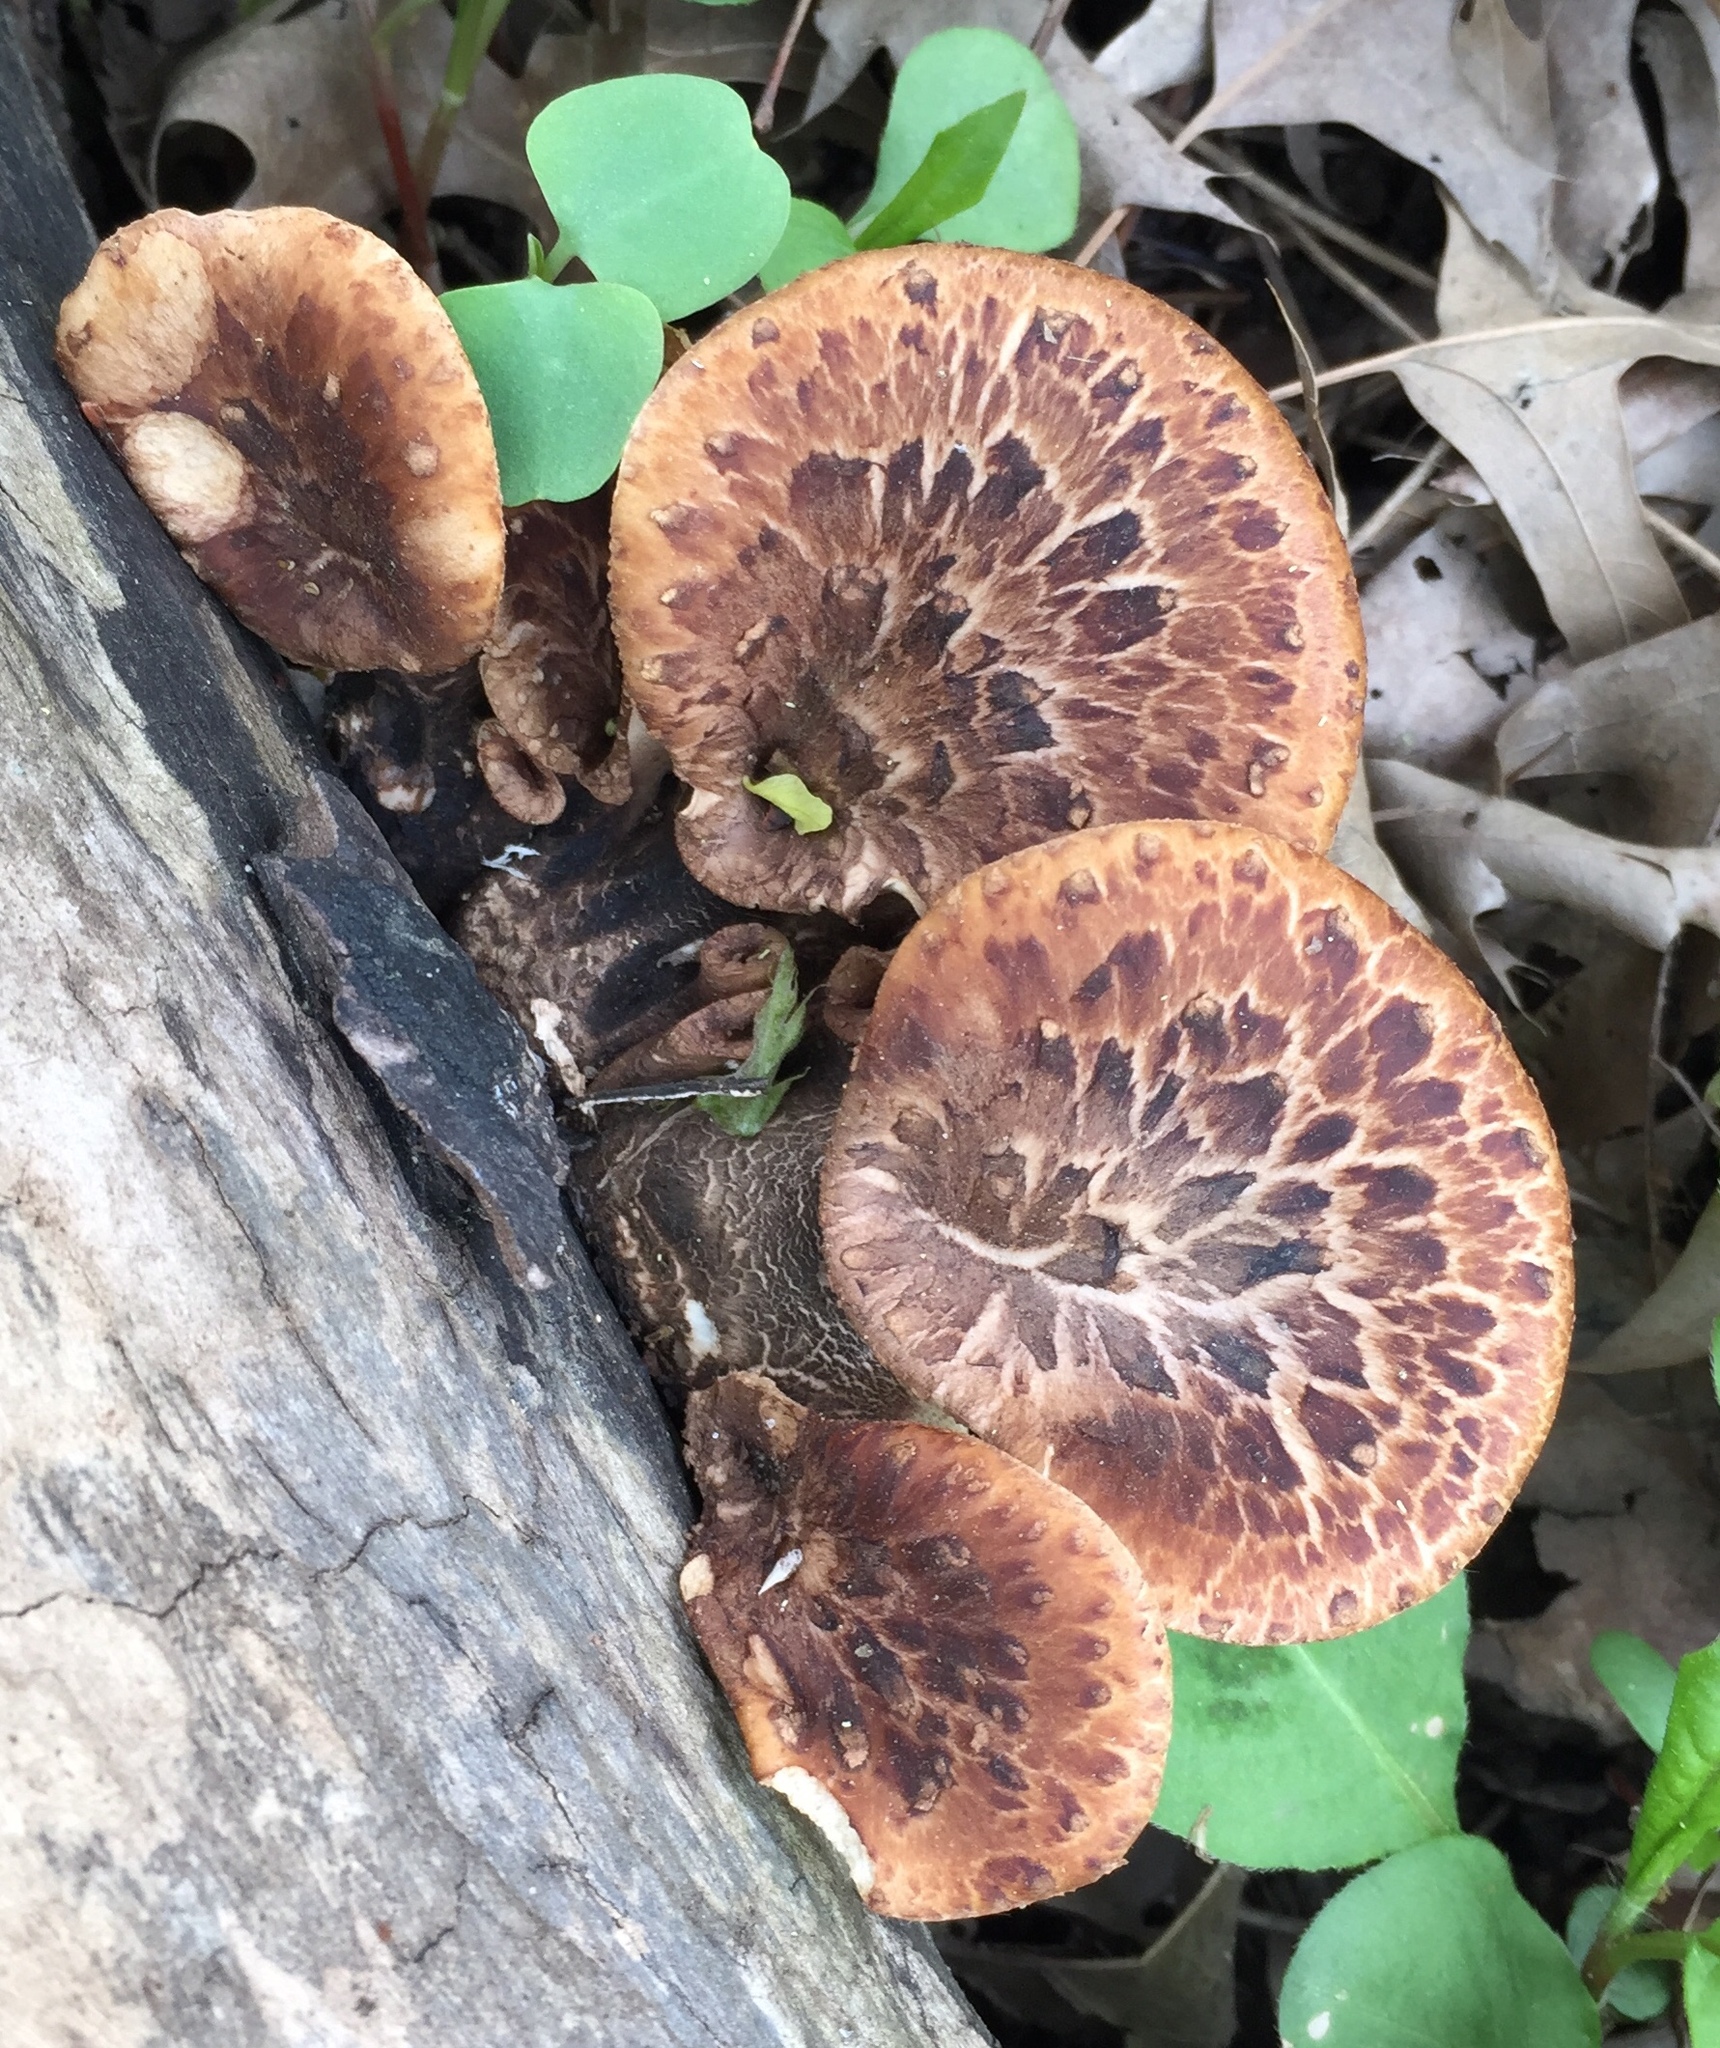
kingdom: Fungi
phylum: Basidiomycota
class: Agaricomycetes
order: Polyporales
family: Polyporaceae
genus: Cerioporus
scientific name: Cerioporus squamosus
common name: Dryad's saddle
